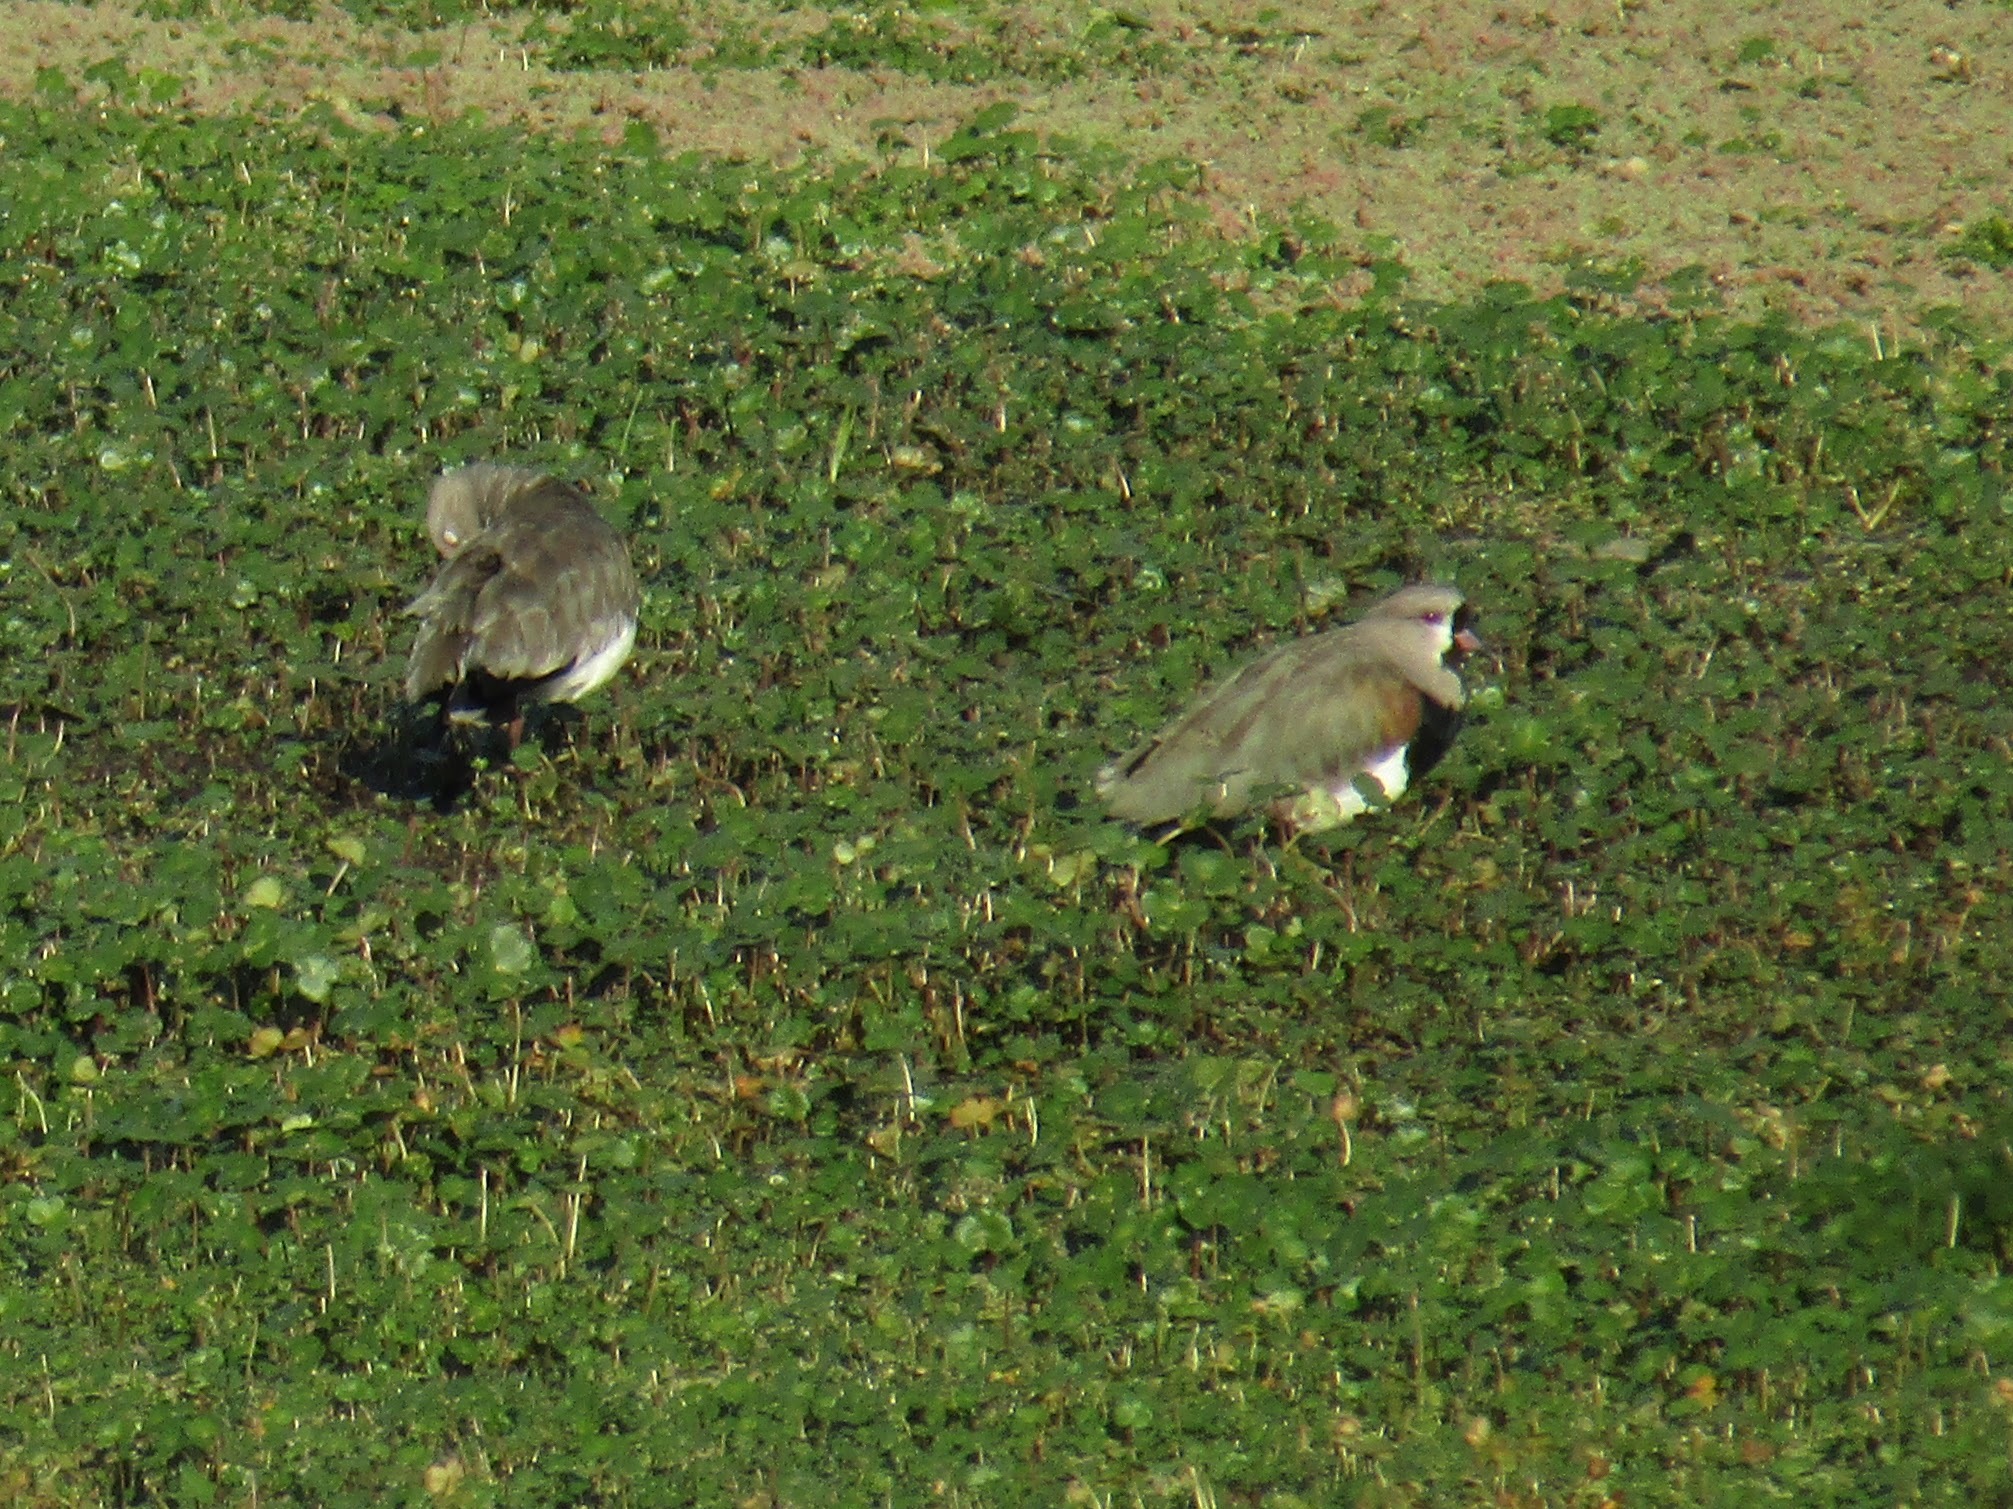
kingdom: Animalia
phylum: Chordata
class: Aves
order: Charadriiformes
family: Charadriidae
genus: Vanellus
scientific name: Vanellus chilensis
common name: Southern lapwing
